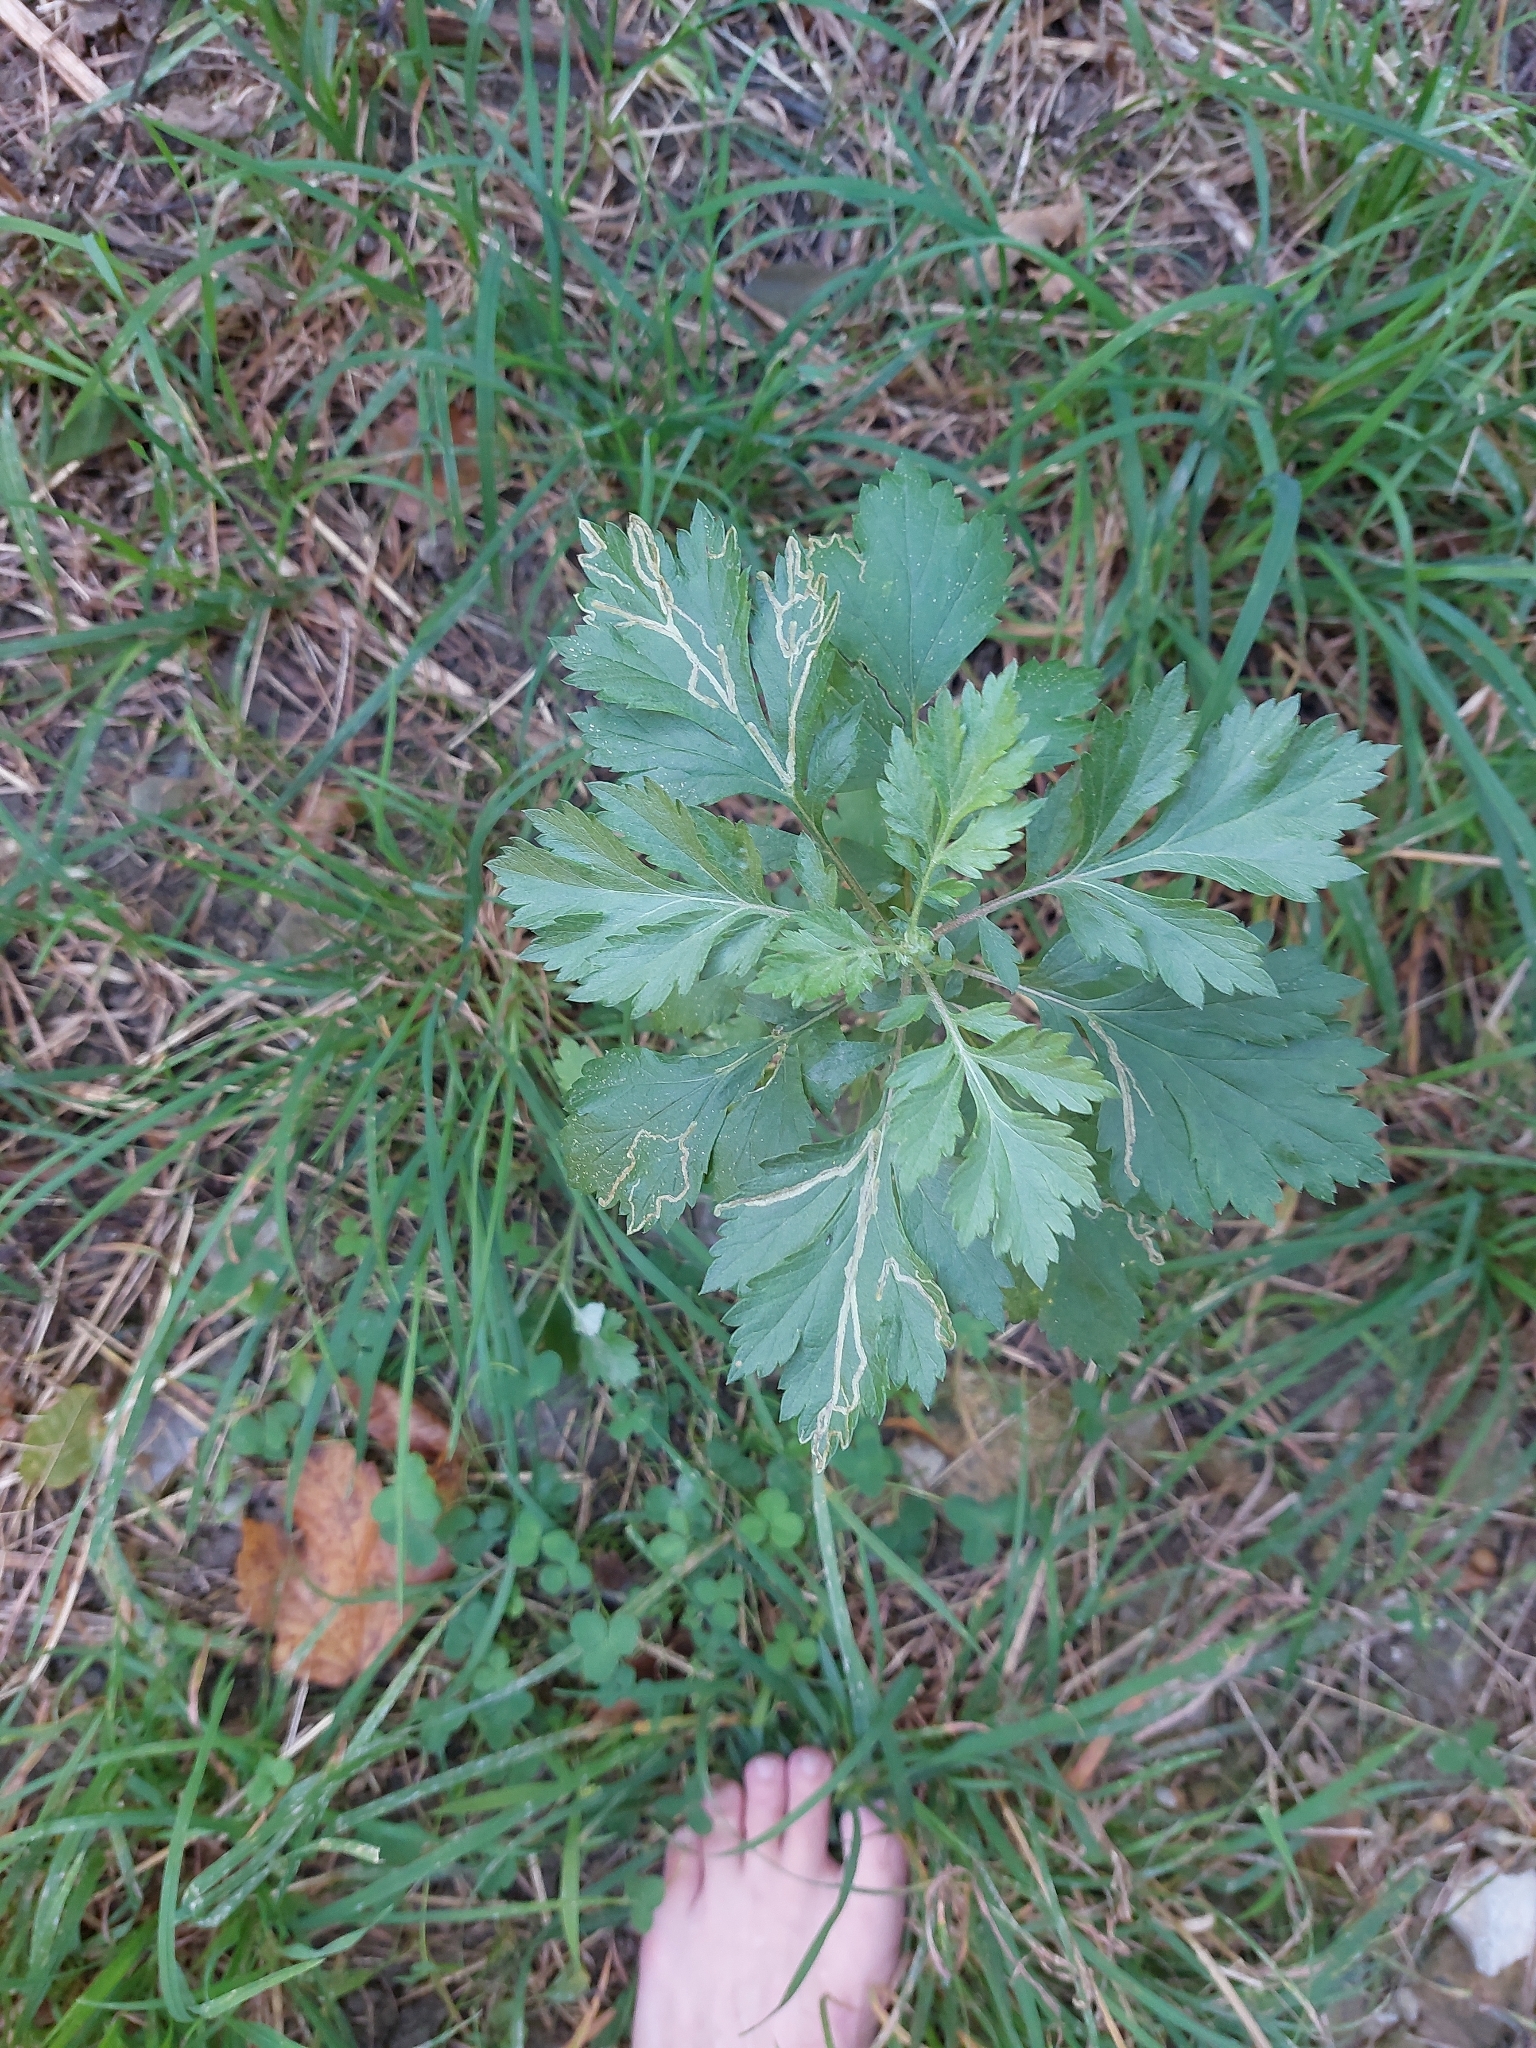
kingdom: Plantae
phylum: Tracheophyta
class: Magnoliopsida
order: Asterales
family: Asteraceae
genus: Artemisia
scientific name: Artemisia vulgaris
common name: Mugwort
